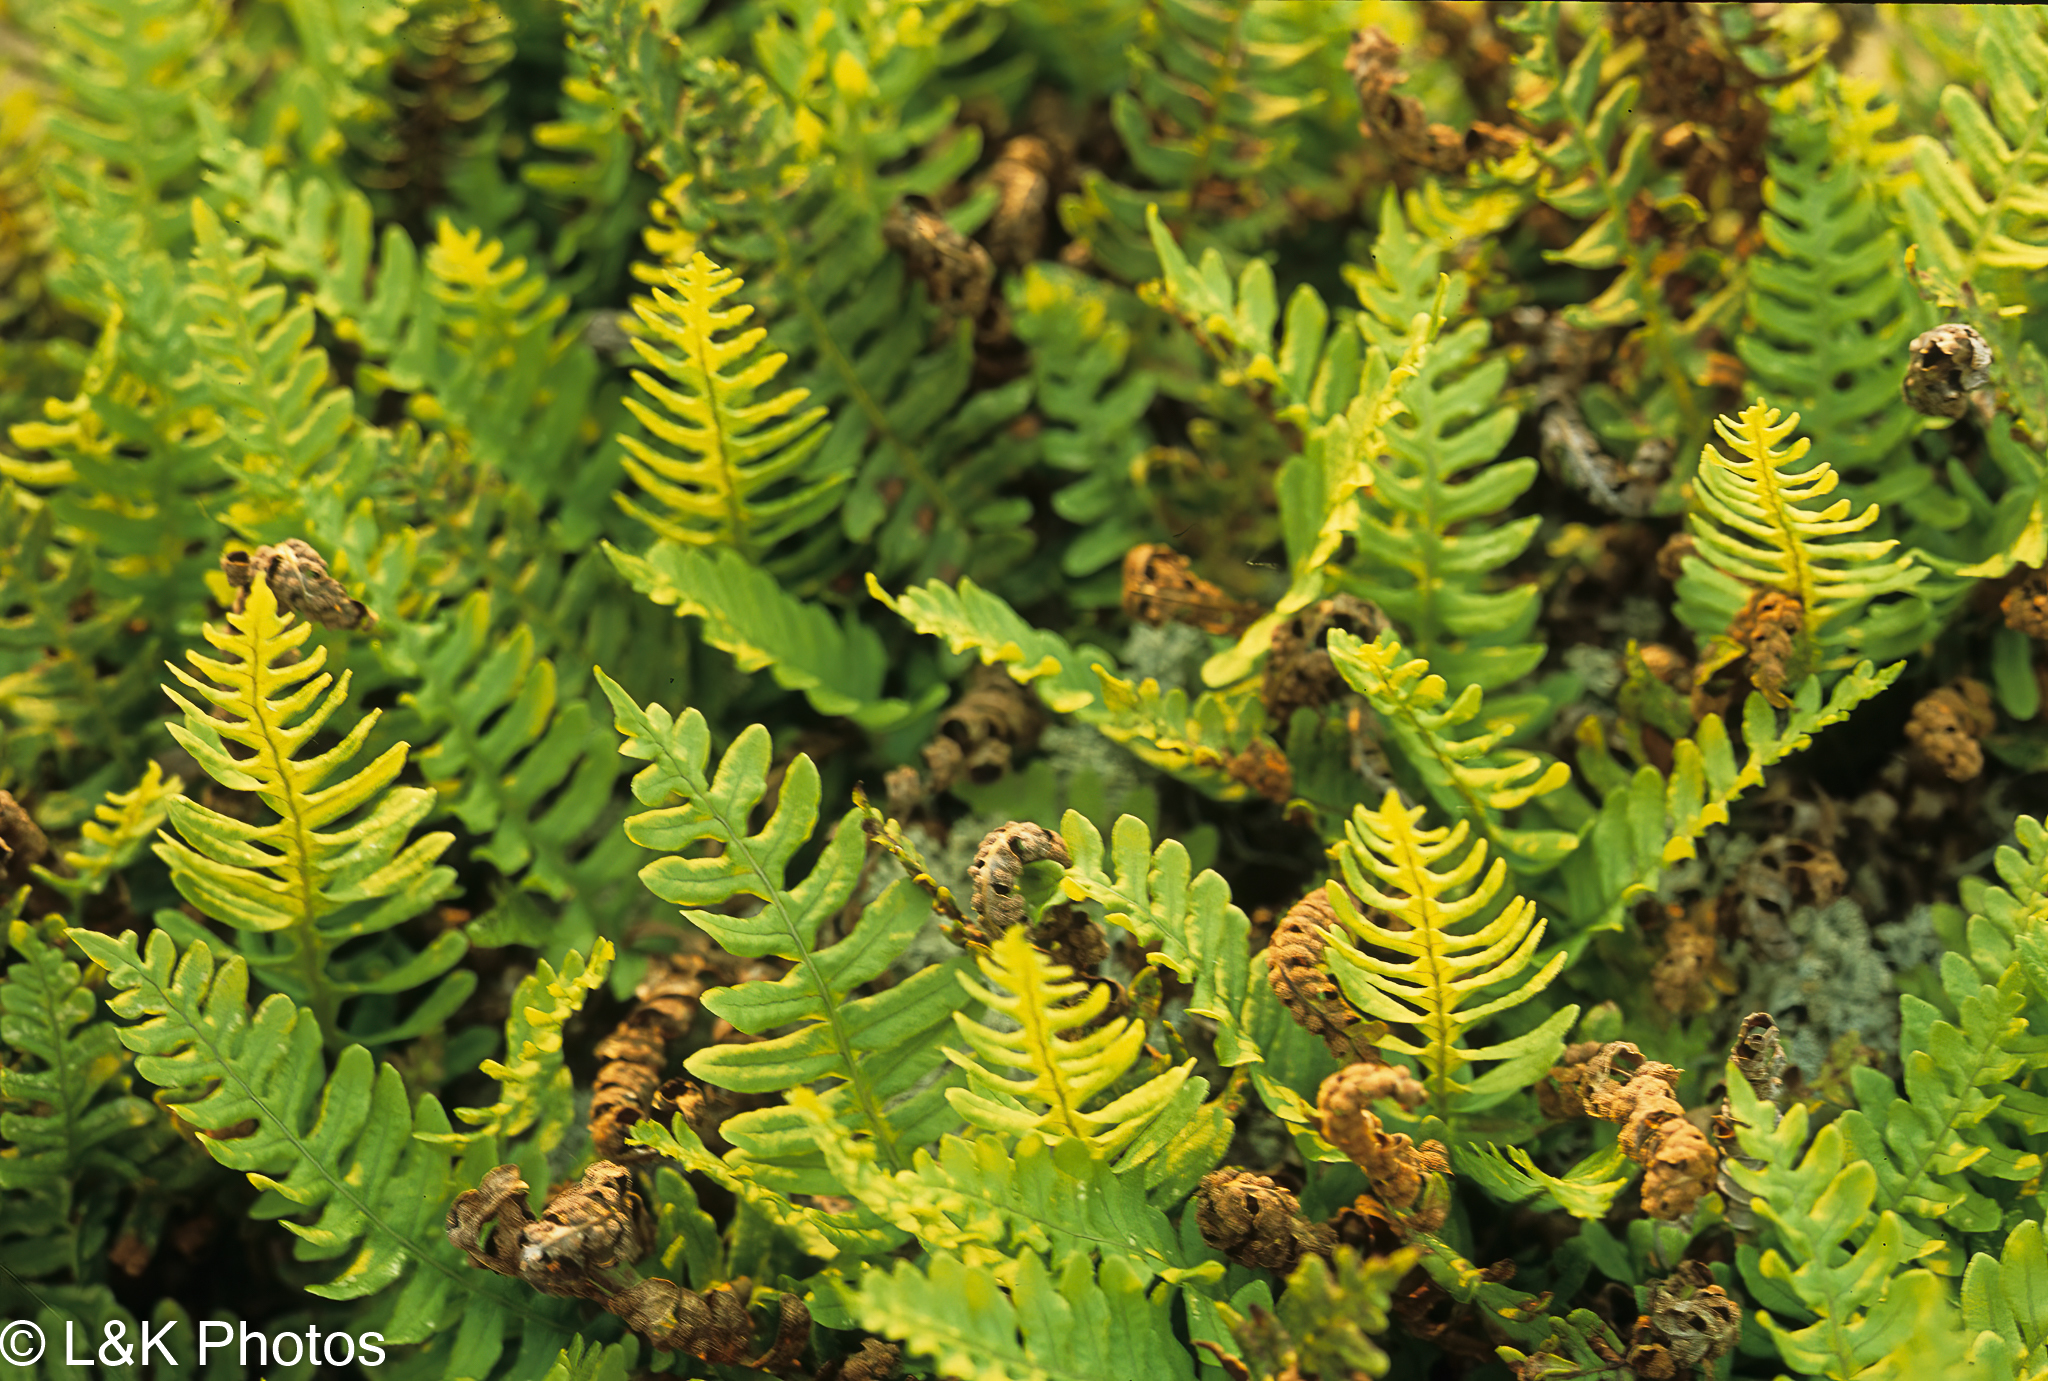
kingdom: Plantae
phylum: Tracheophyta
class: Polypodiopsida
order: Polypodiales
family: Polypodiaceae
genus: Polypodium
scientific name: Polypodium sibiricum
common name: Siberian polypody
